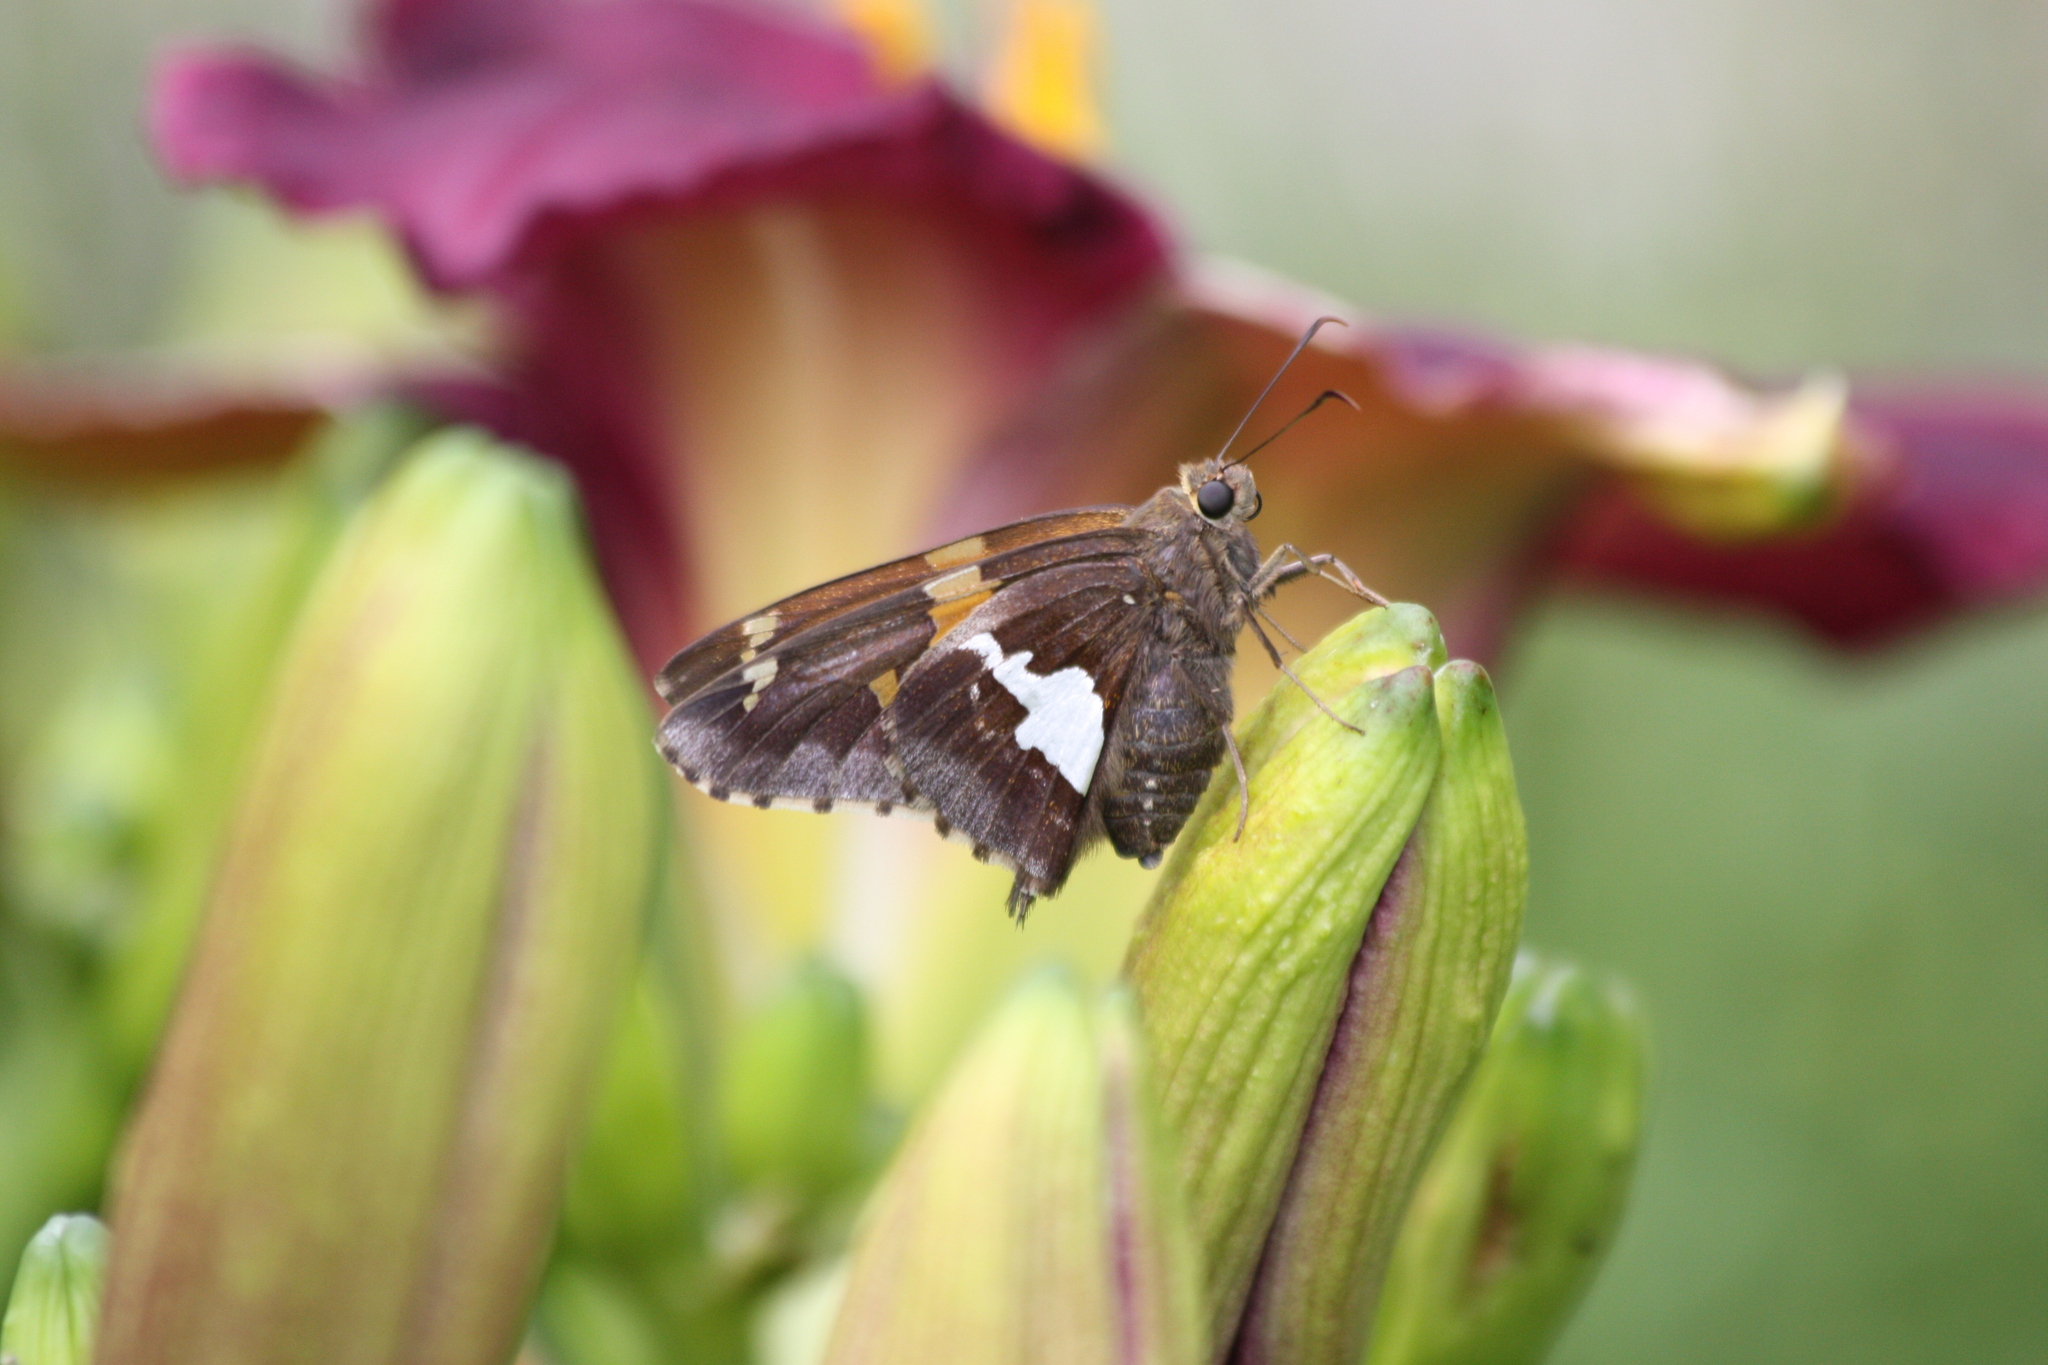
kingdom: Animalia
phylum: Arthropoda
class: Insecta
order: Lepidoptera
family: Hesperiidae
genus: Epargyreus
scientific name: Epargyreus clarus
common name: Silver-spotted skipper
